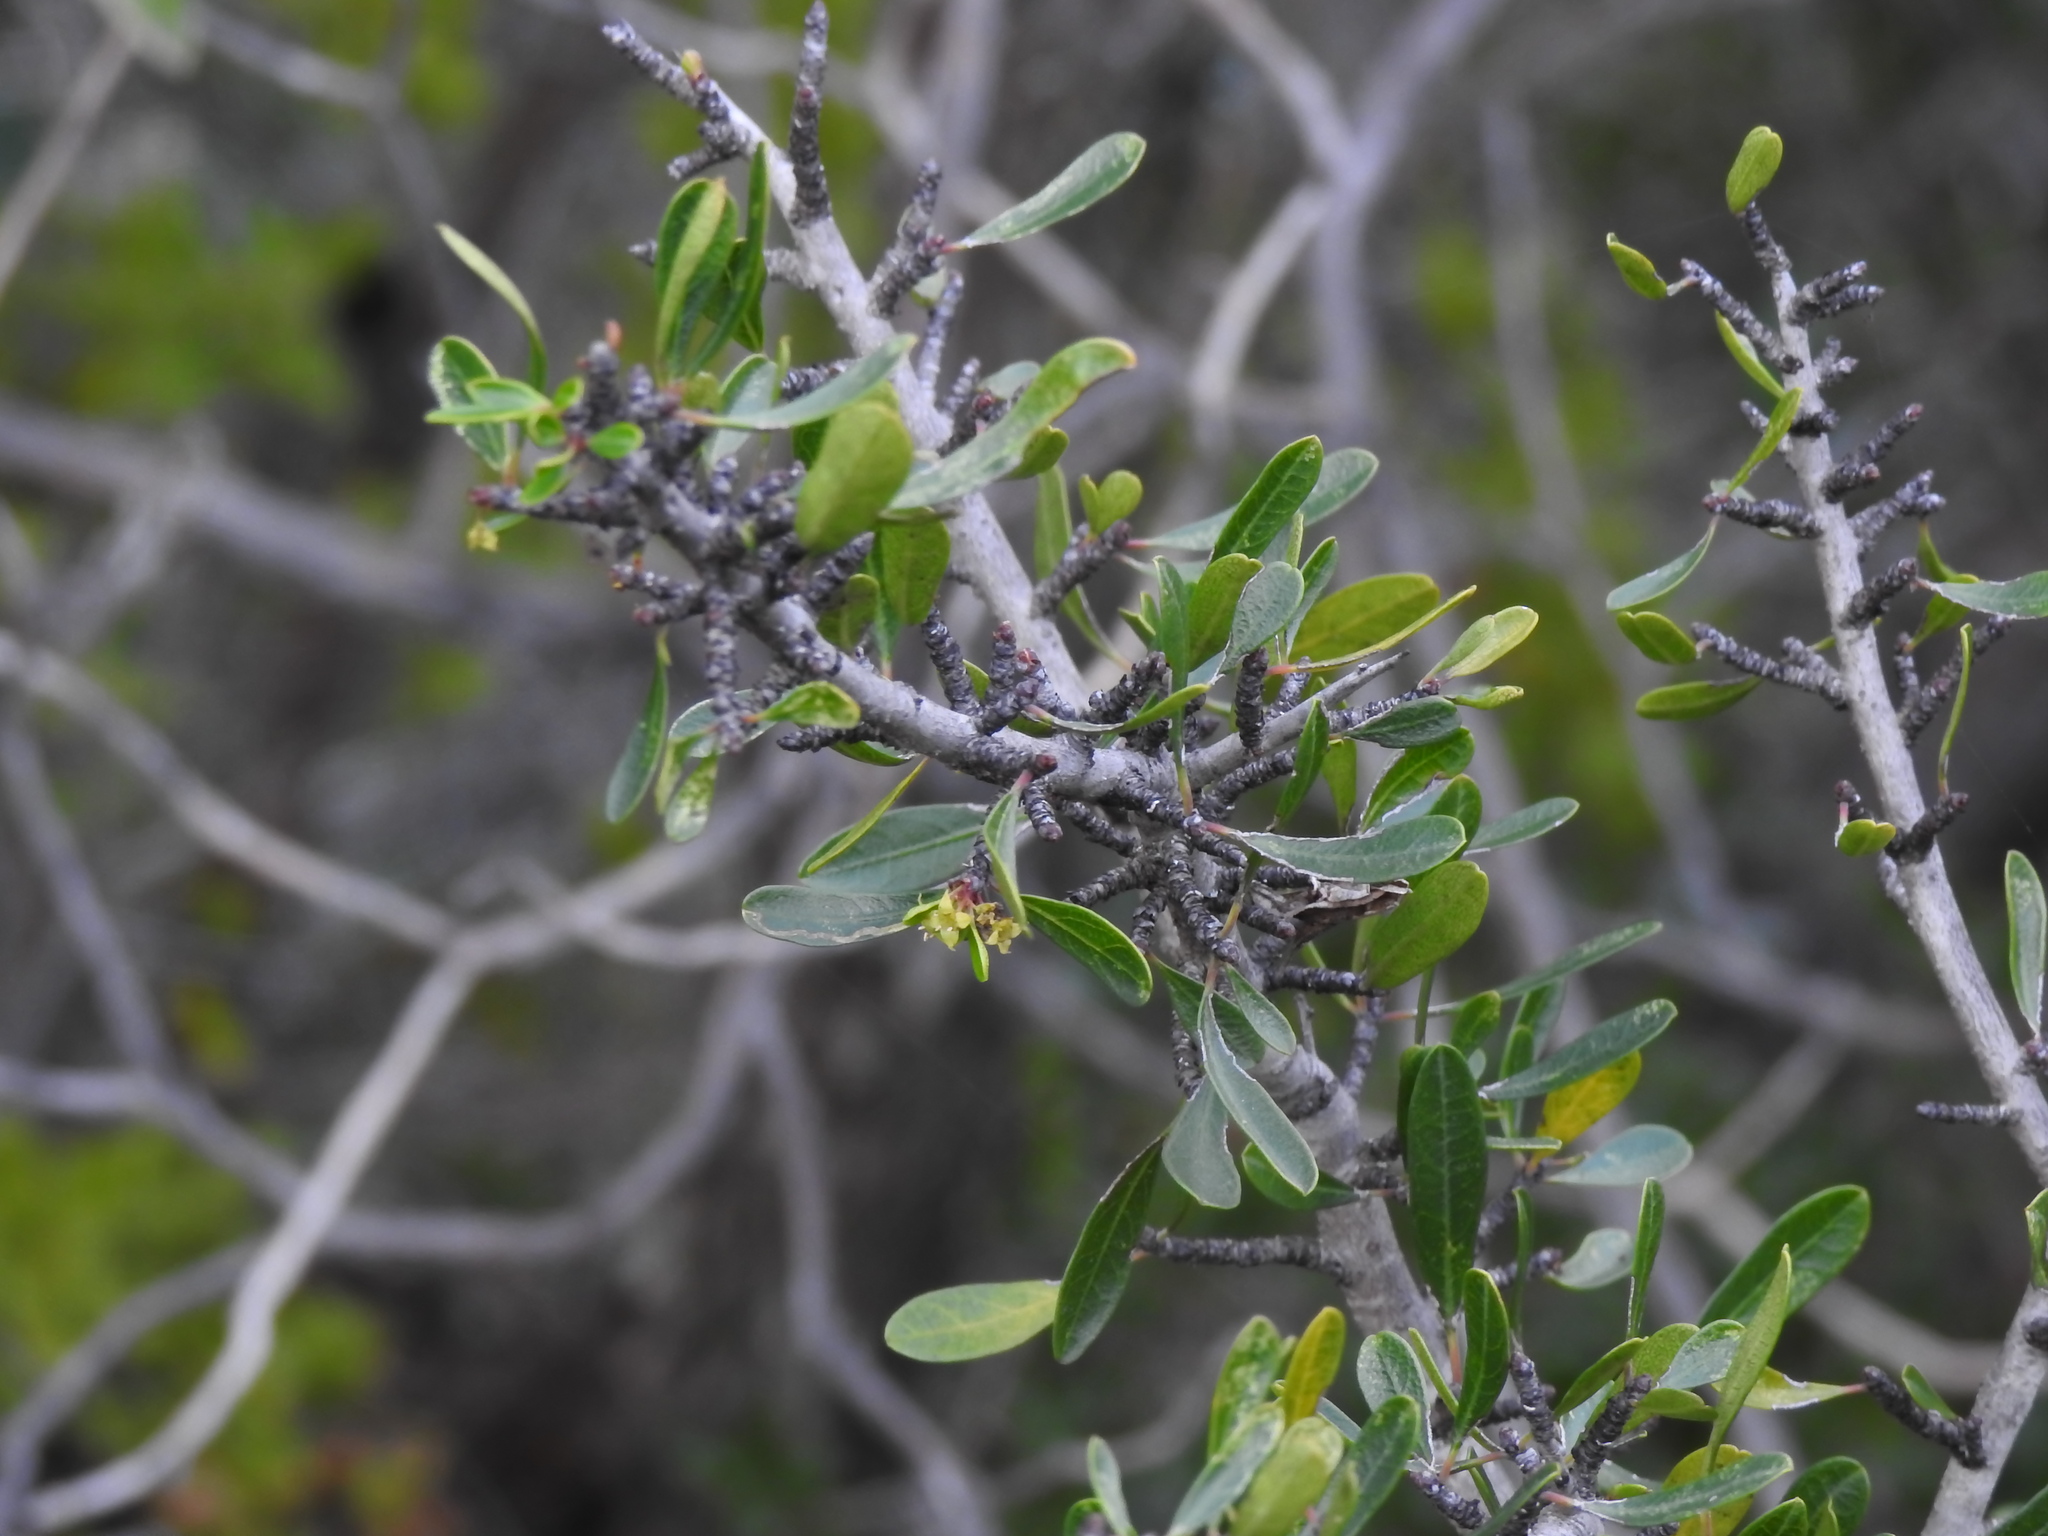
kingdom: Plantae
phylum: Tracheophyta
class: Magnoliopsida
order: Rosales
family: Rhamnaceae
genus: Rhamnus
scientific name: Rhamnus oleoides
